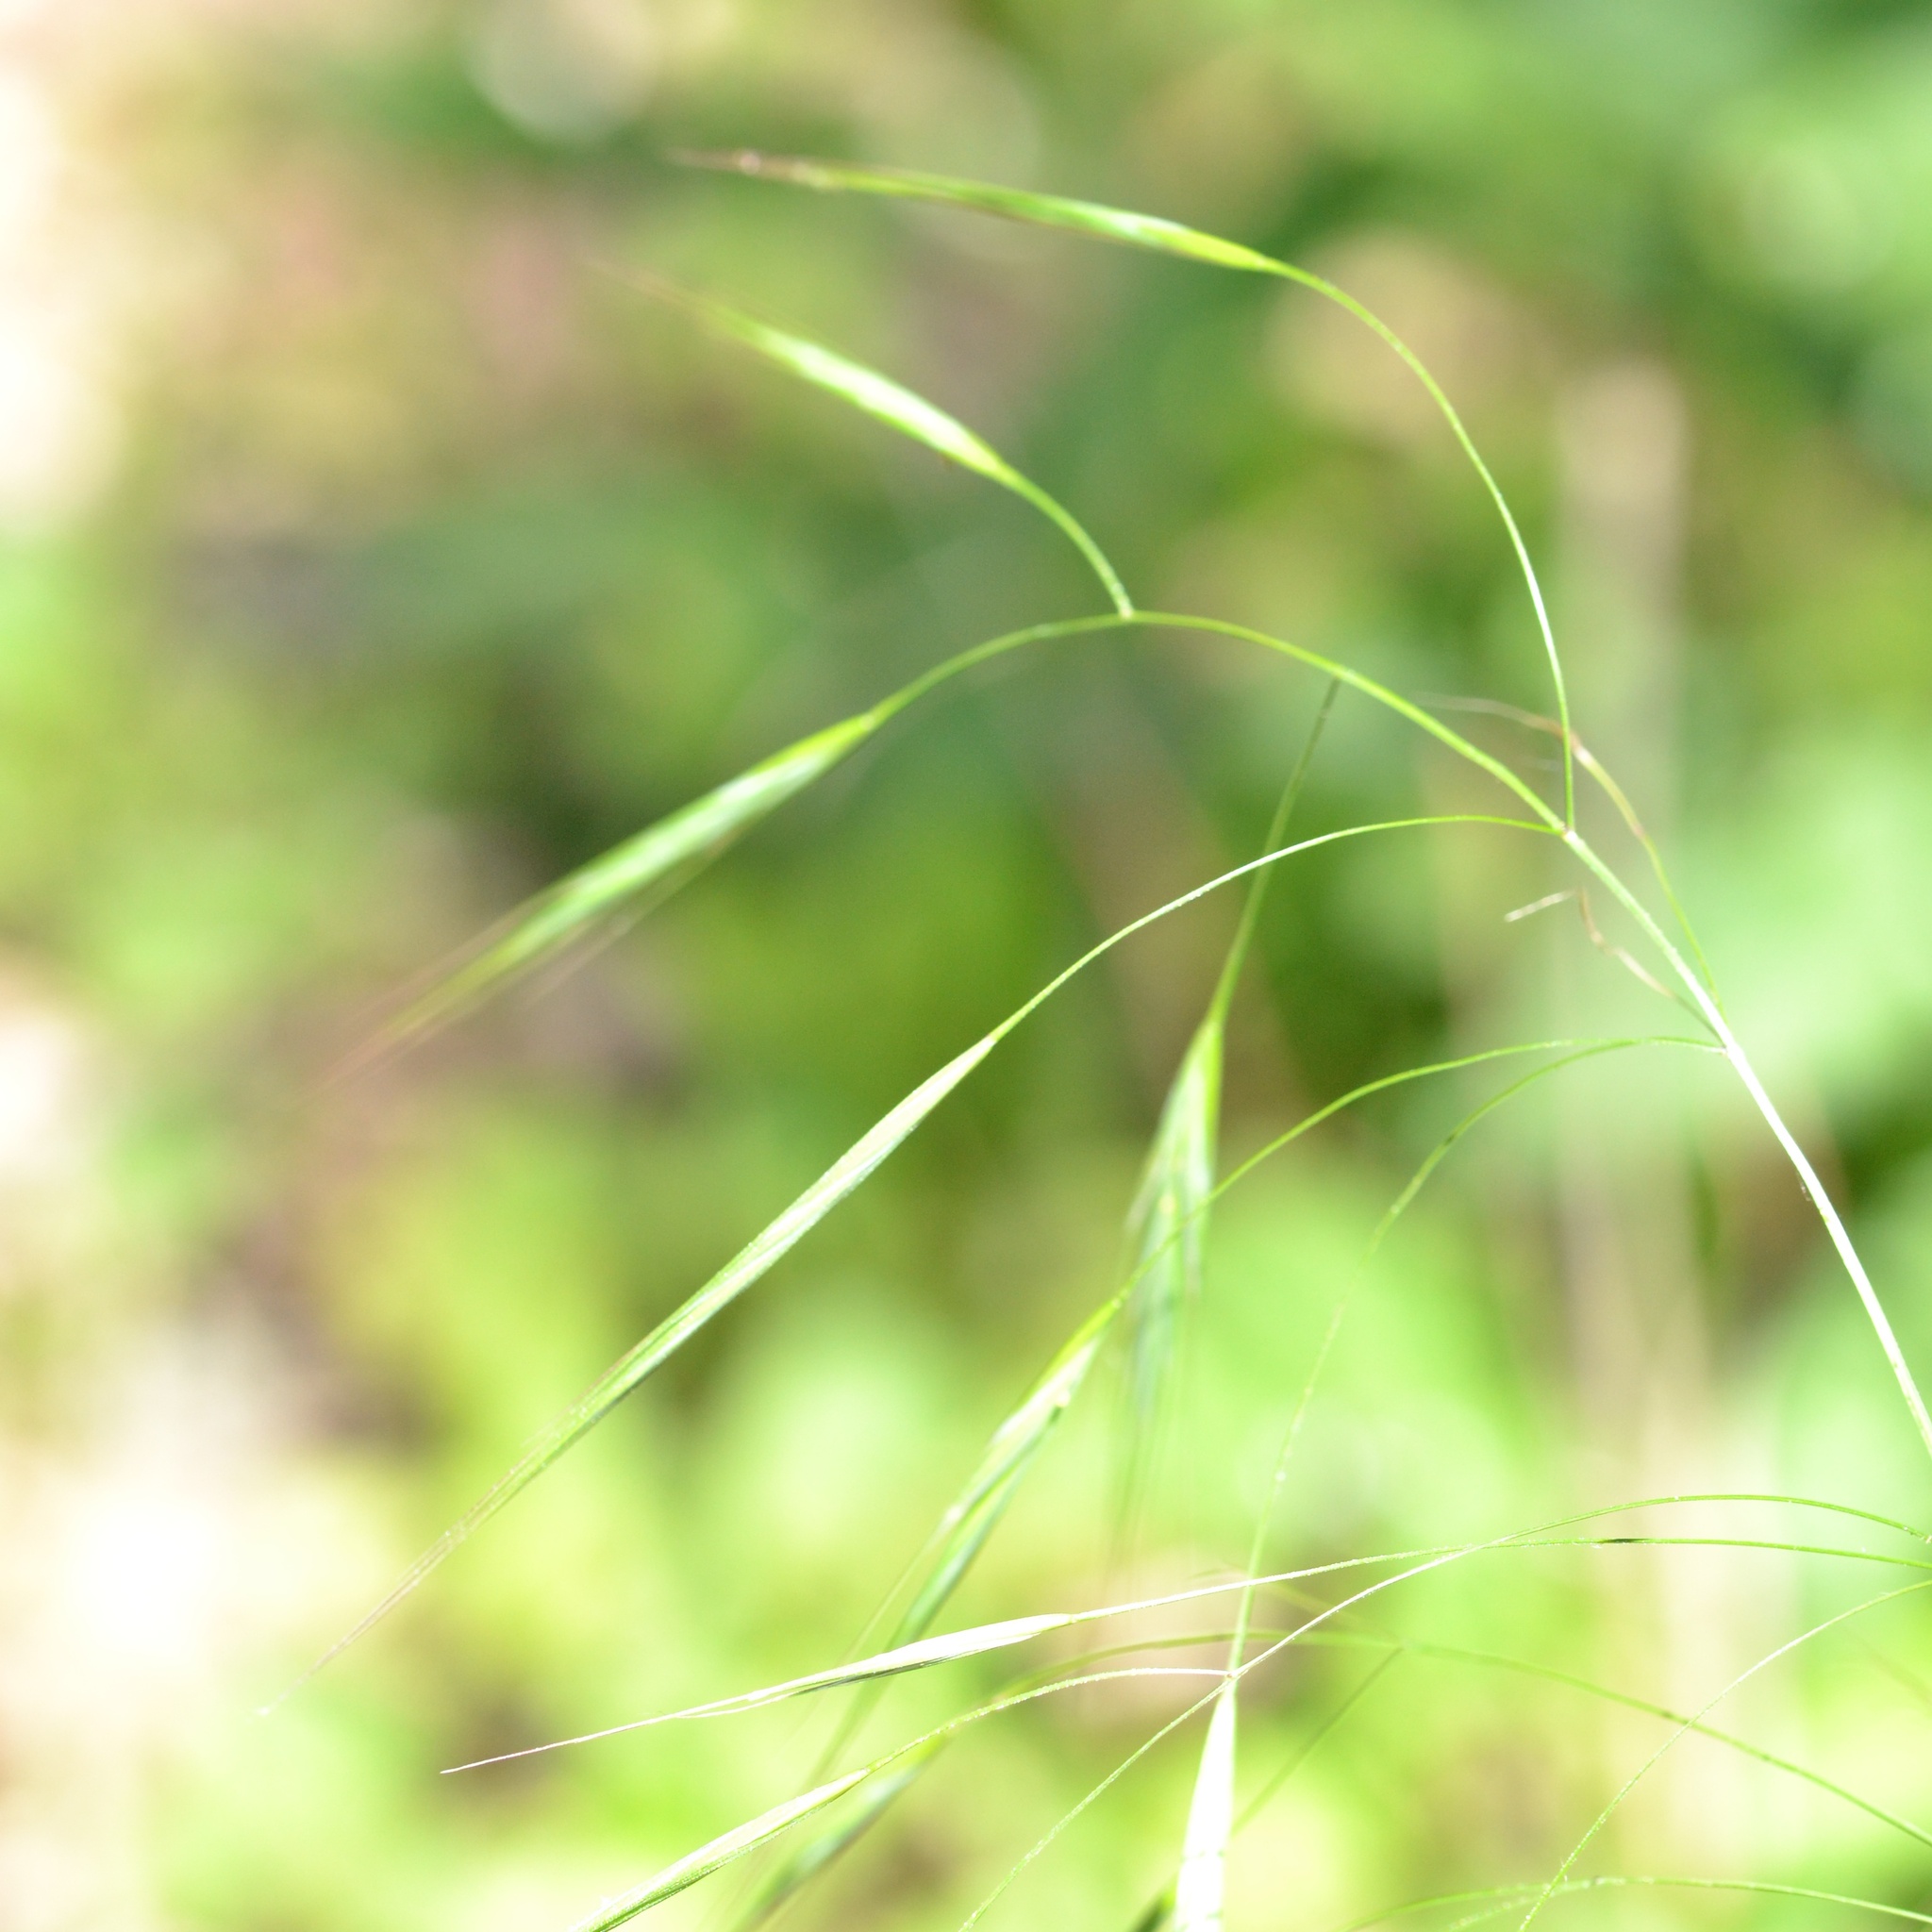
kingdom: Plantae
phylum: Tracheophyta
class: Liliopsida
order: Poales
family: Poaceae
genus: Bromus
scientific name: Bromus sterilis
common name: Poverty brome
